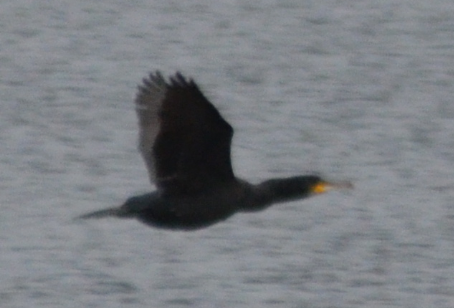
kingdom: Animalia
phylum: Chordata
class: Aves
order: Suliformes
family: Phalacrocoracidae
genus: Phalacrocorax
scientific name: Phalacrocorax carbo
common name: Great cormorant
